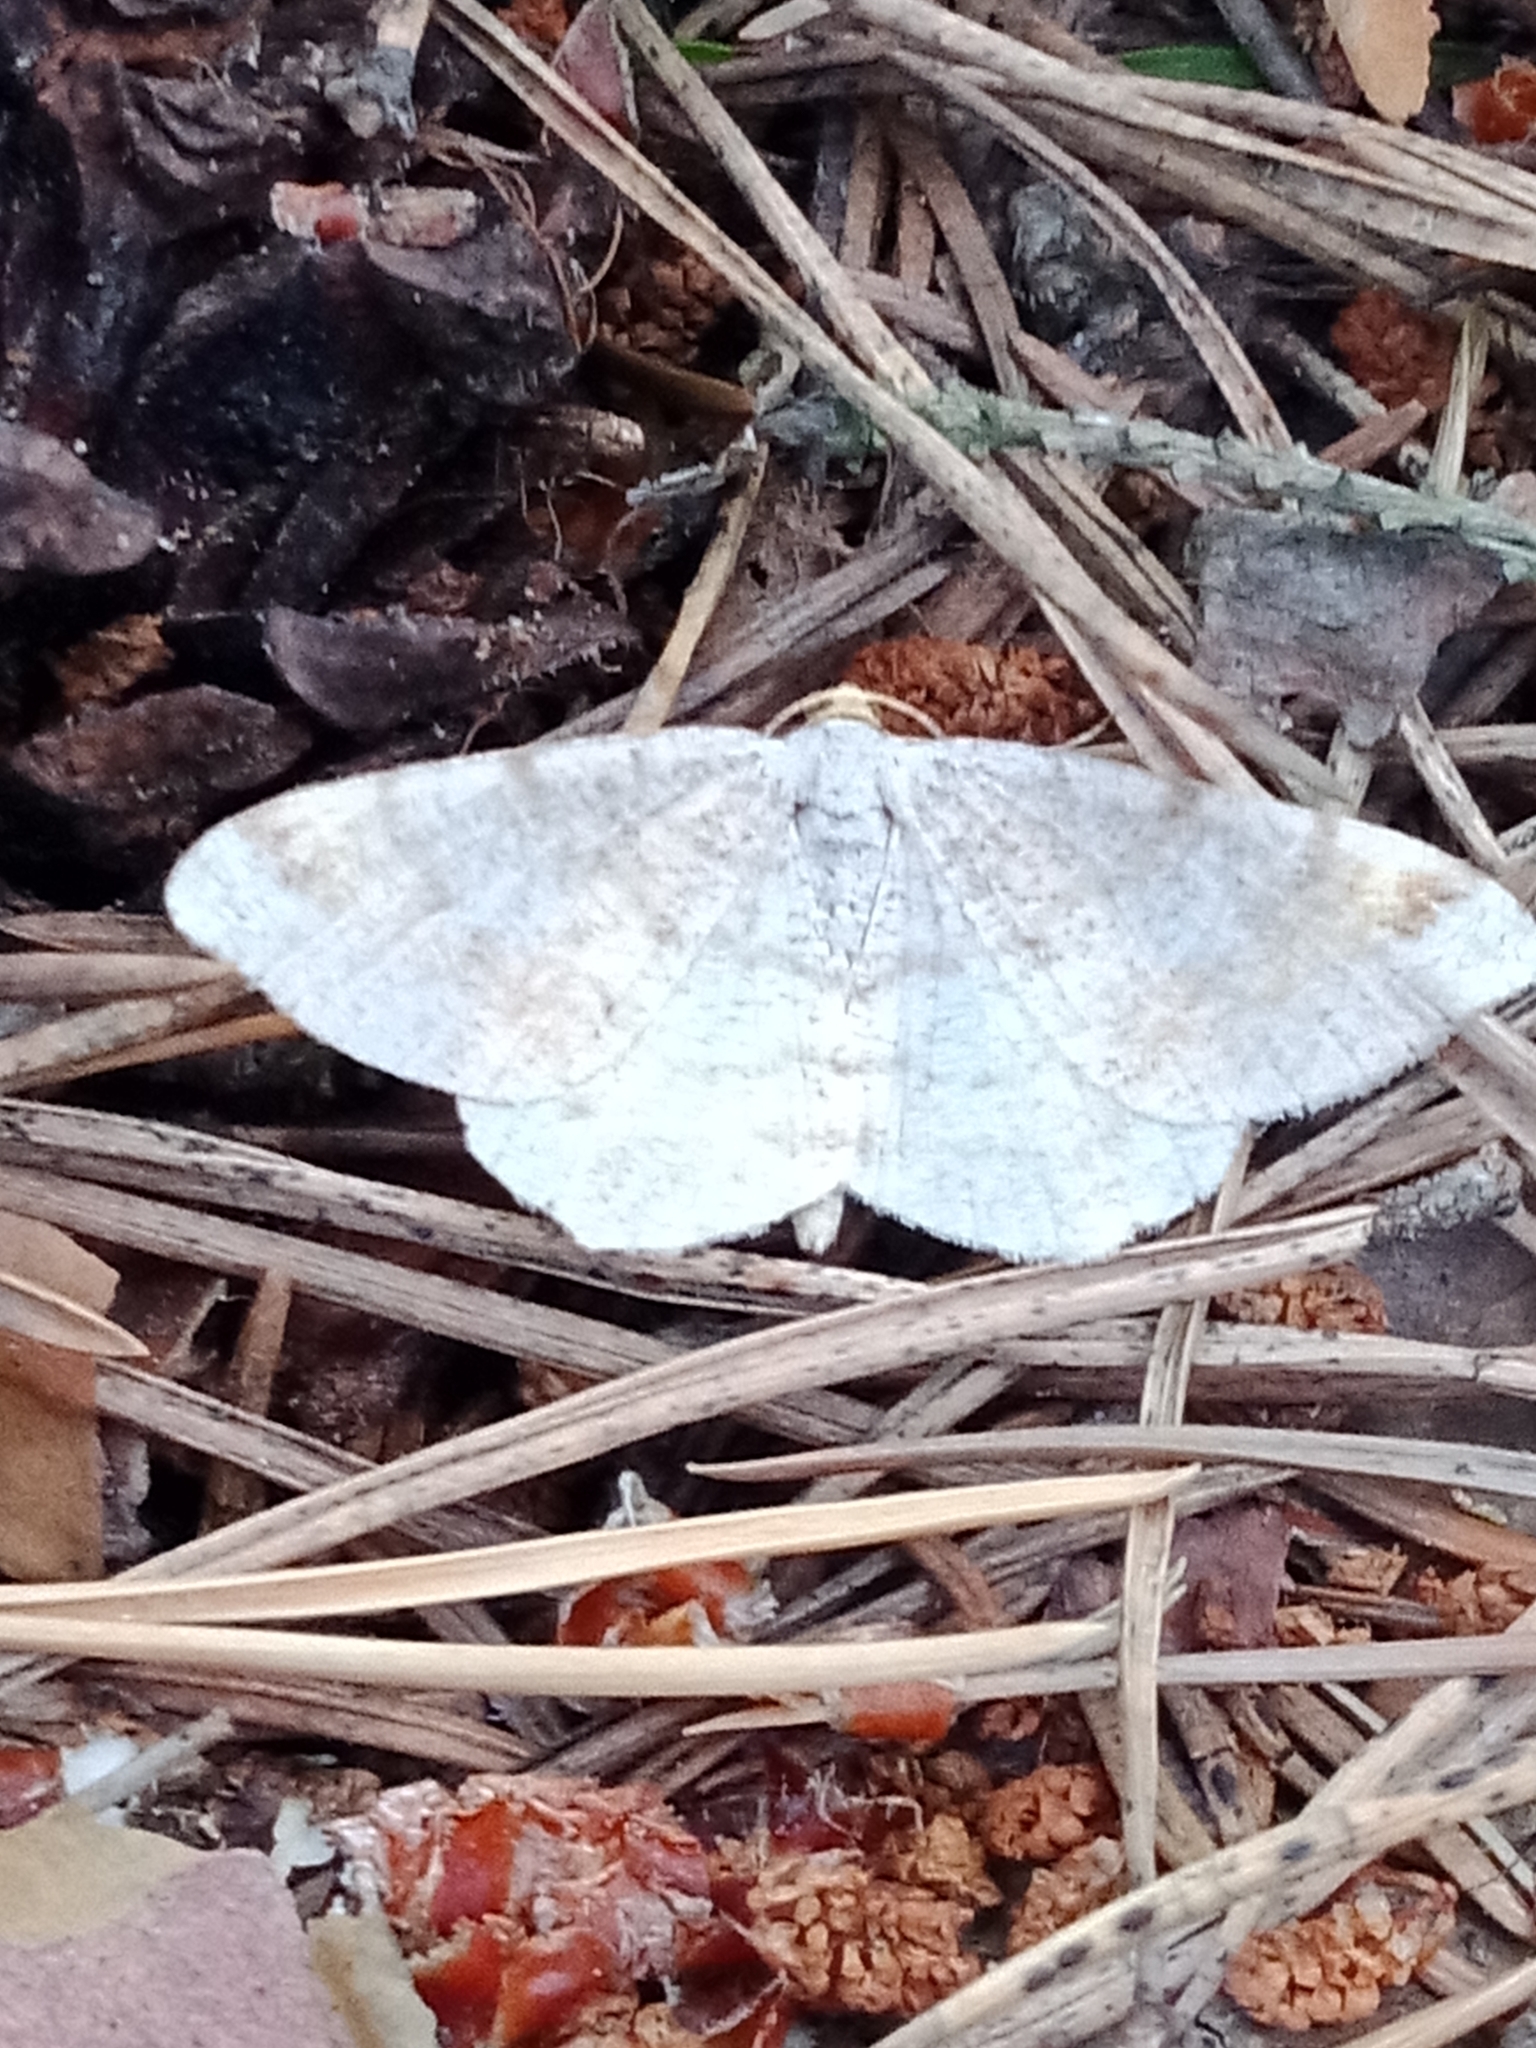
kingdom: Animalia
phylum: Arthropoda
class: Insecta
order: Lepidoptera
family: Geometridae
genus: Macaria
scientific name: Macaria alternata
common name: Sharp-angled peacock
